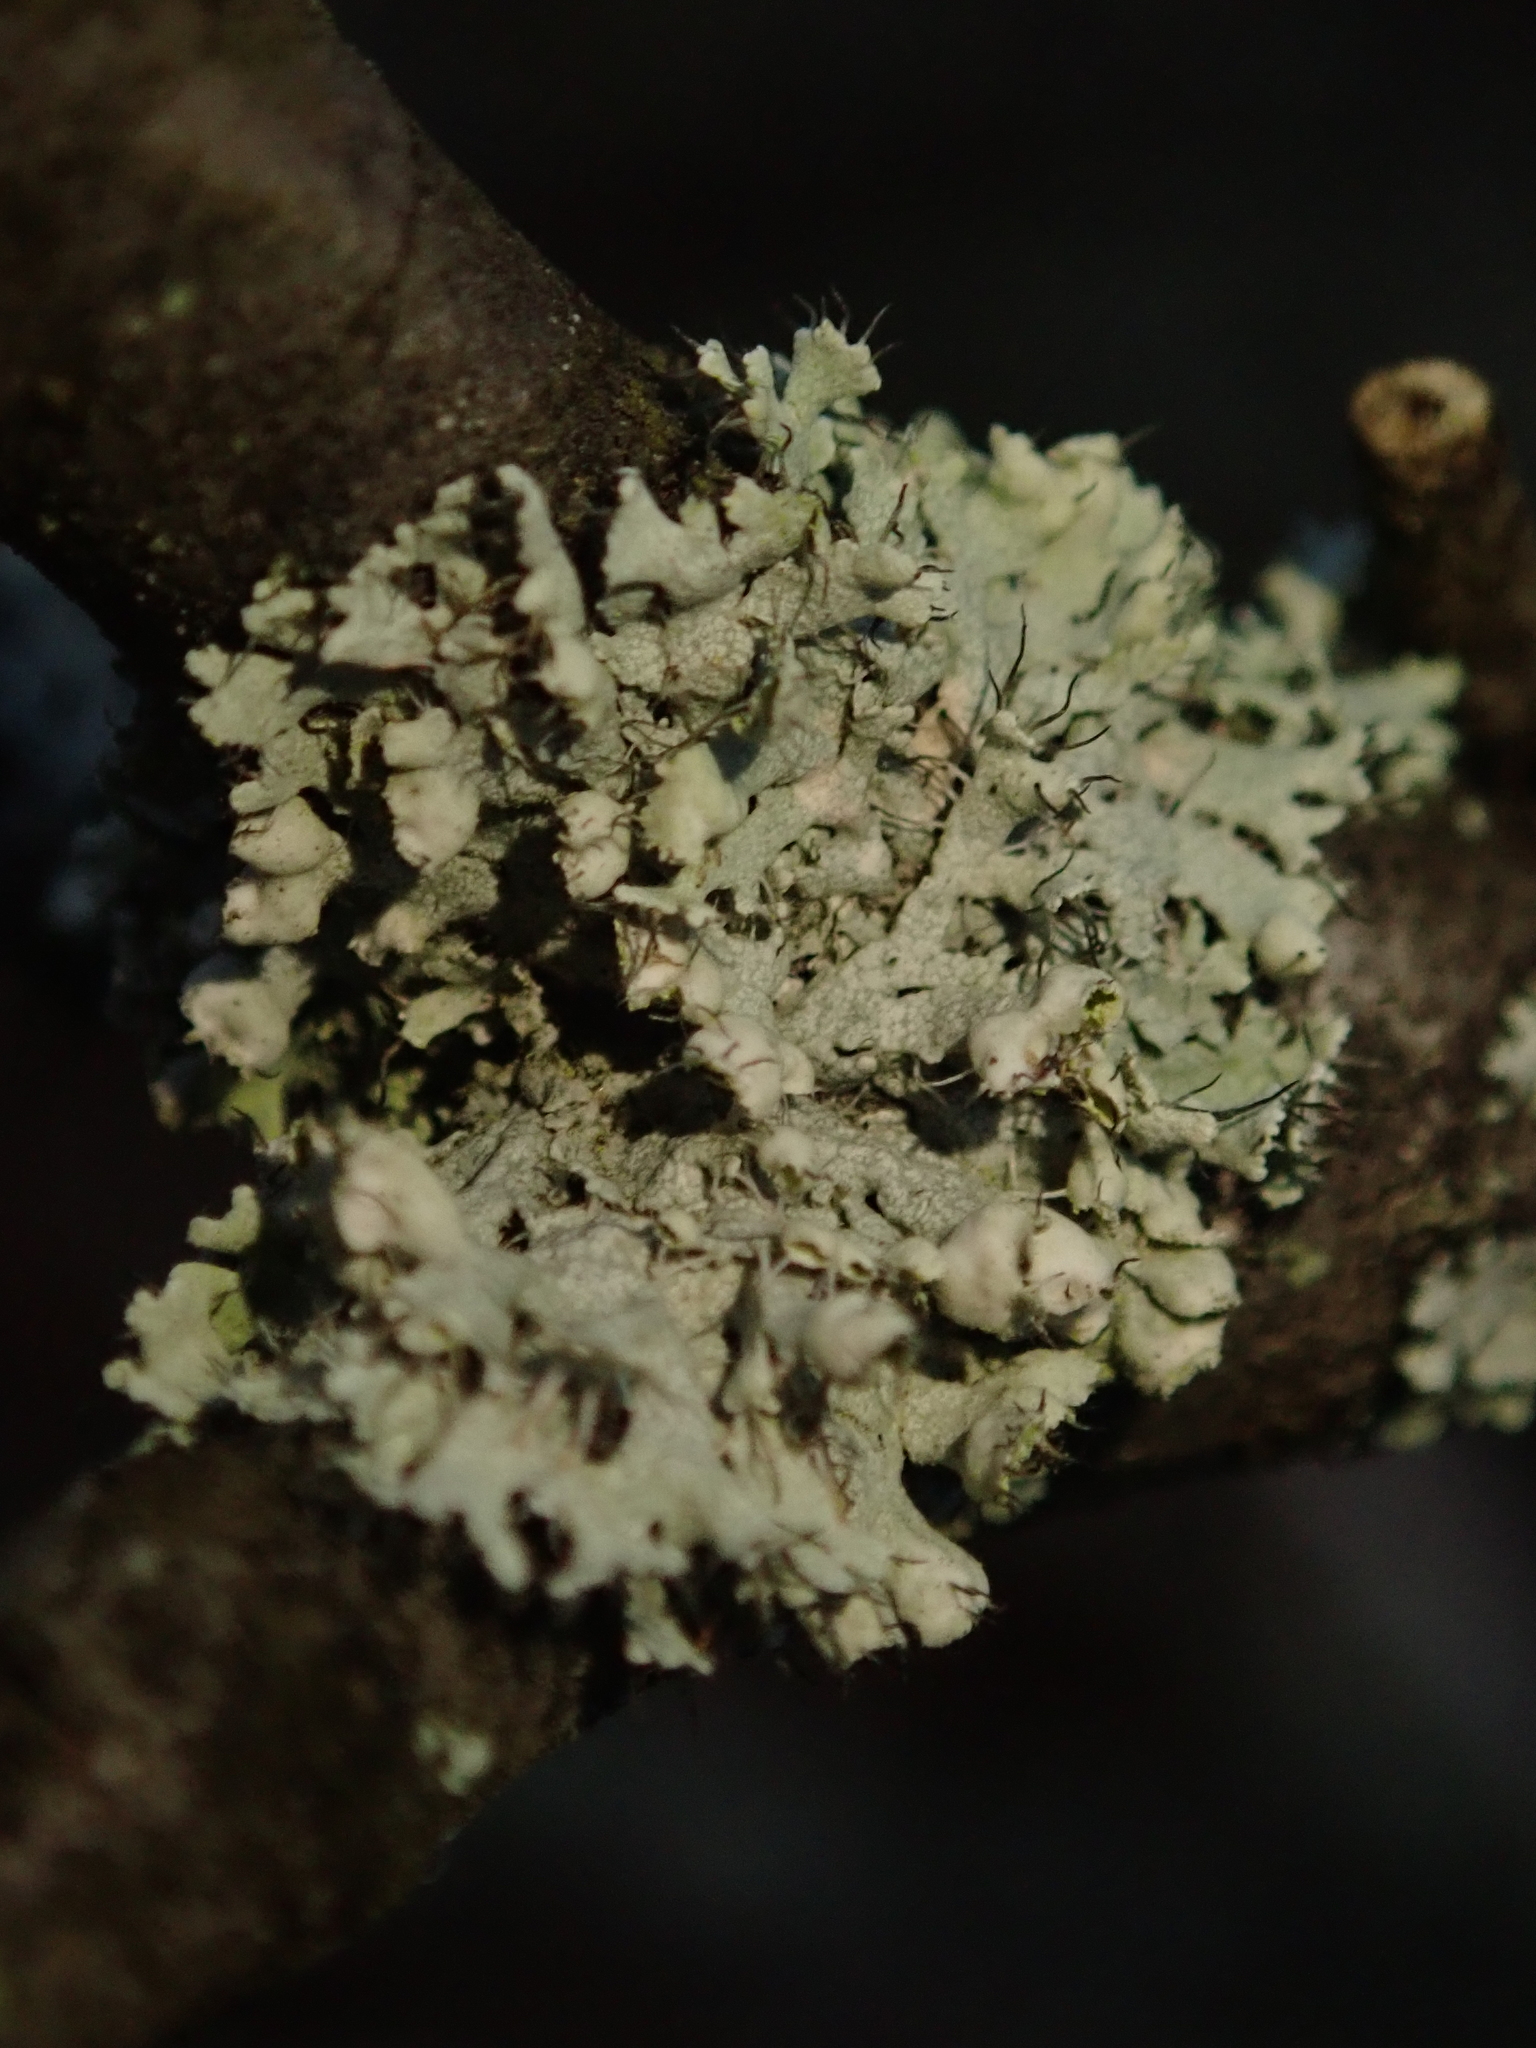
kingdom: Fungi
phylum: Ascomycota
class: Lecanoromycetes
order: Caliciales
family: Physciaceae
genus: Physcia
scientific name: Physcia adscendens
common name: Hooded rosette lichen
